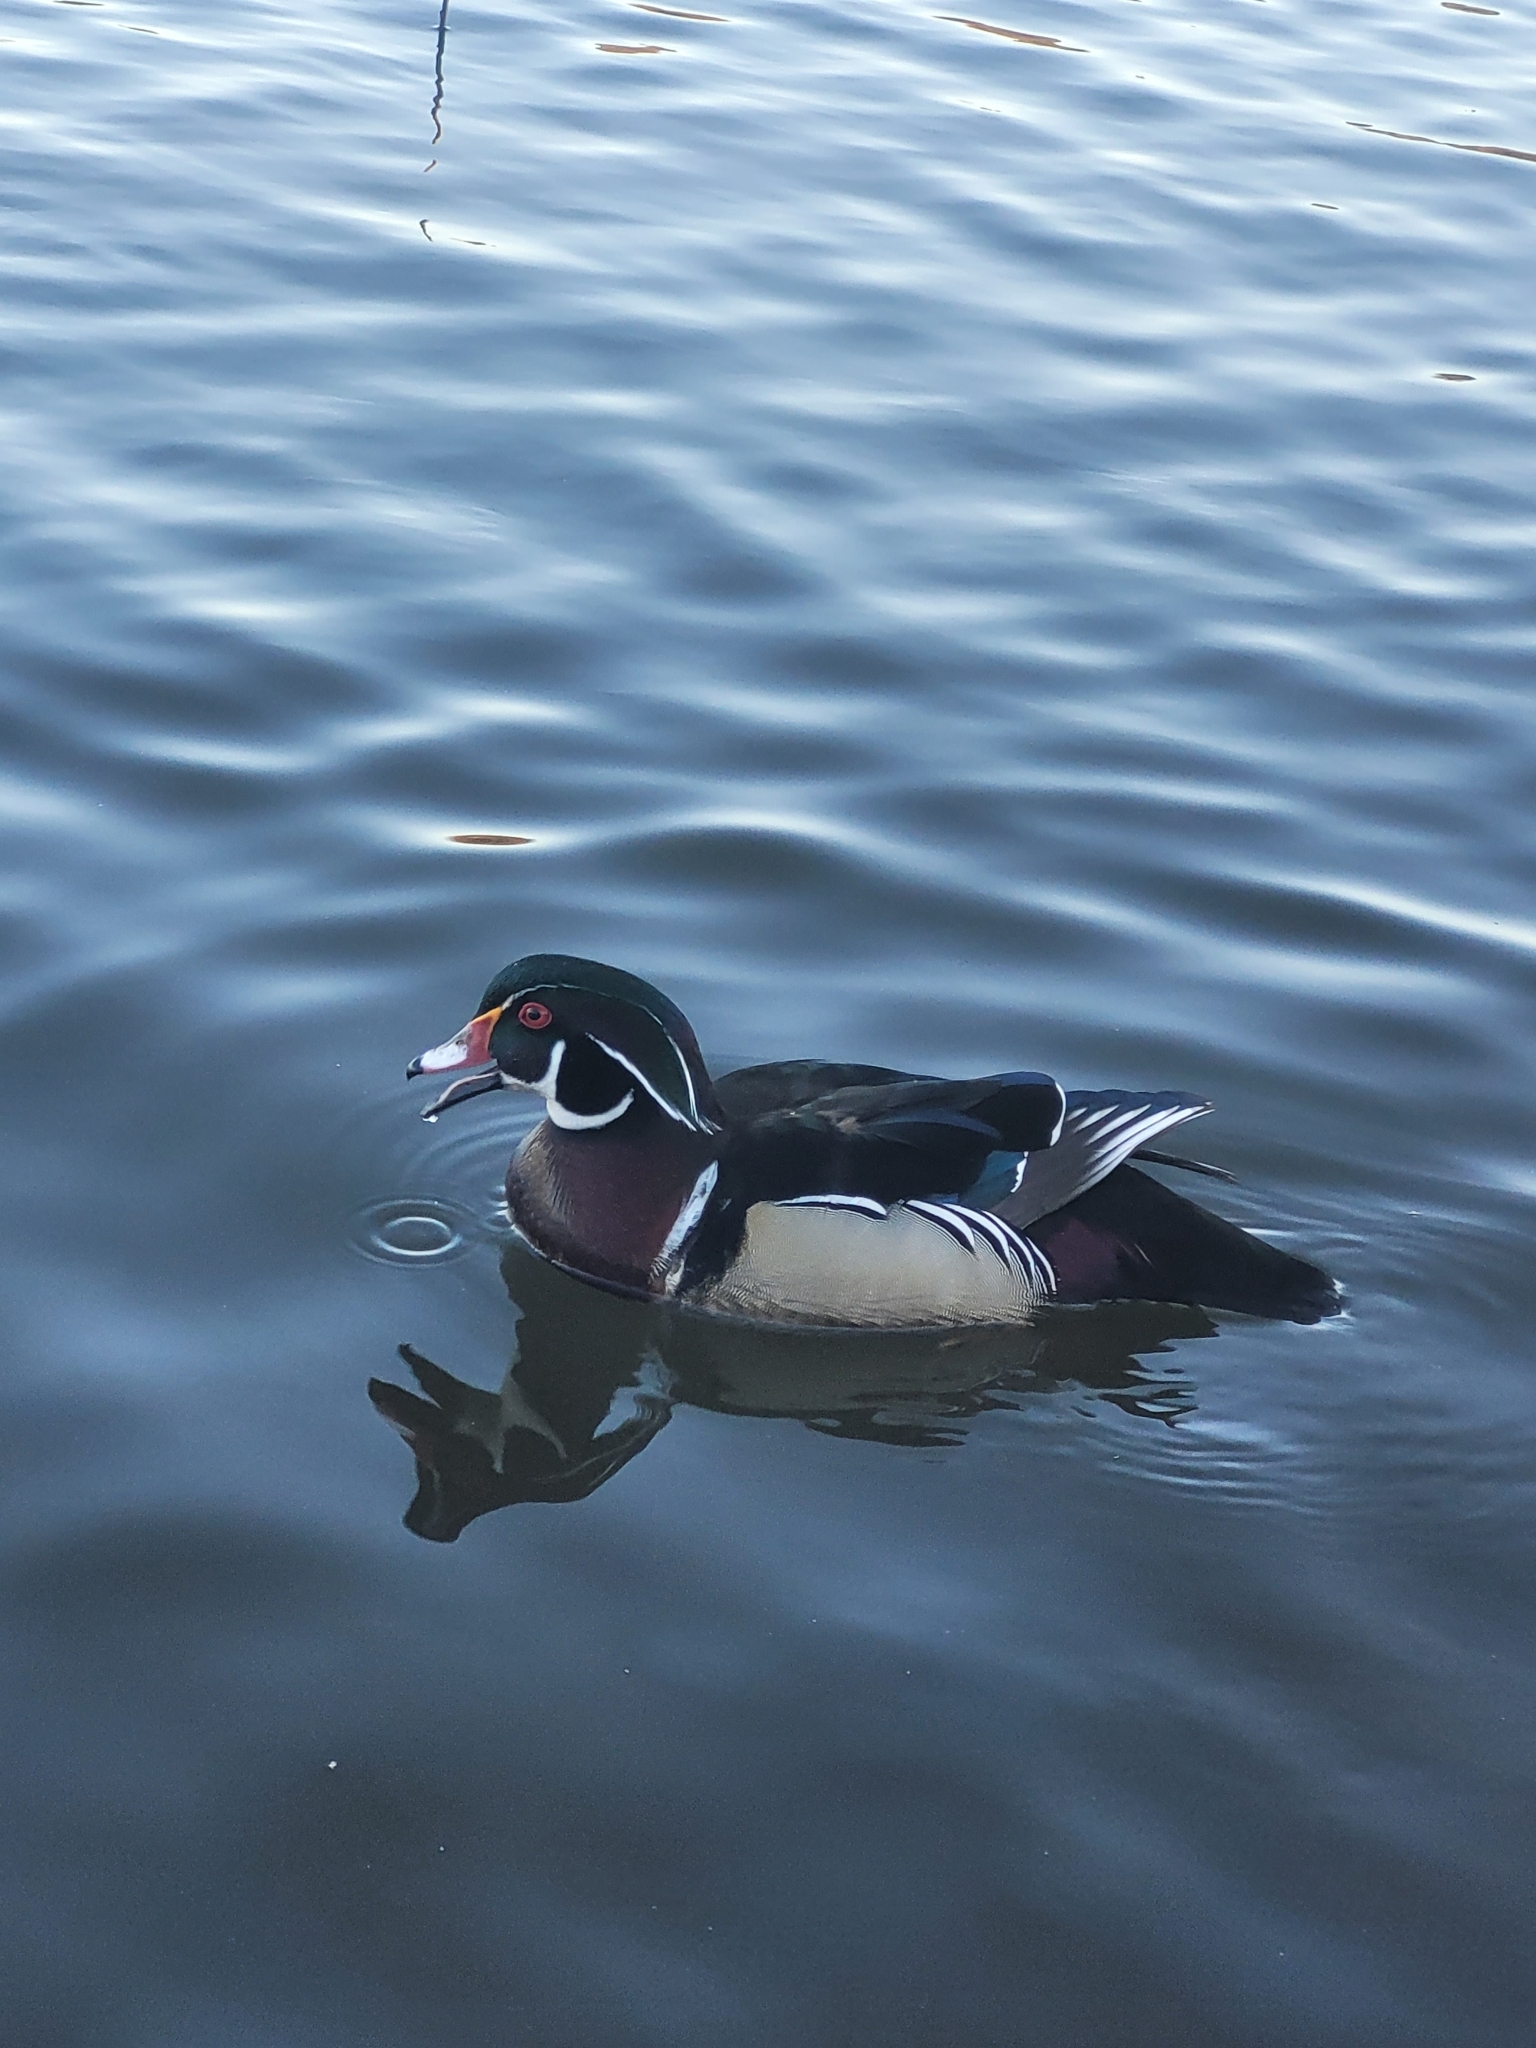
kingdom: Animalia
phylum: Chordata
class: Aves
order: Anseriformes
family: Anatidae
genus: Aix
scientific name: Aix sponsa
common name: Wood duck
